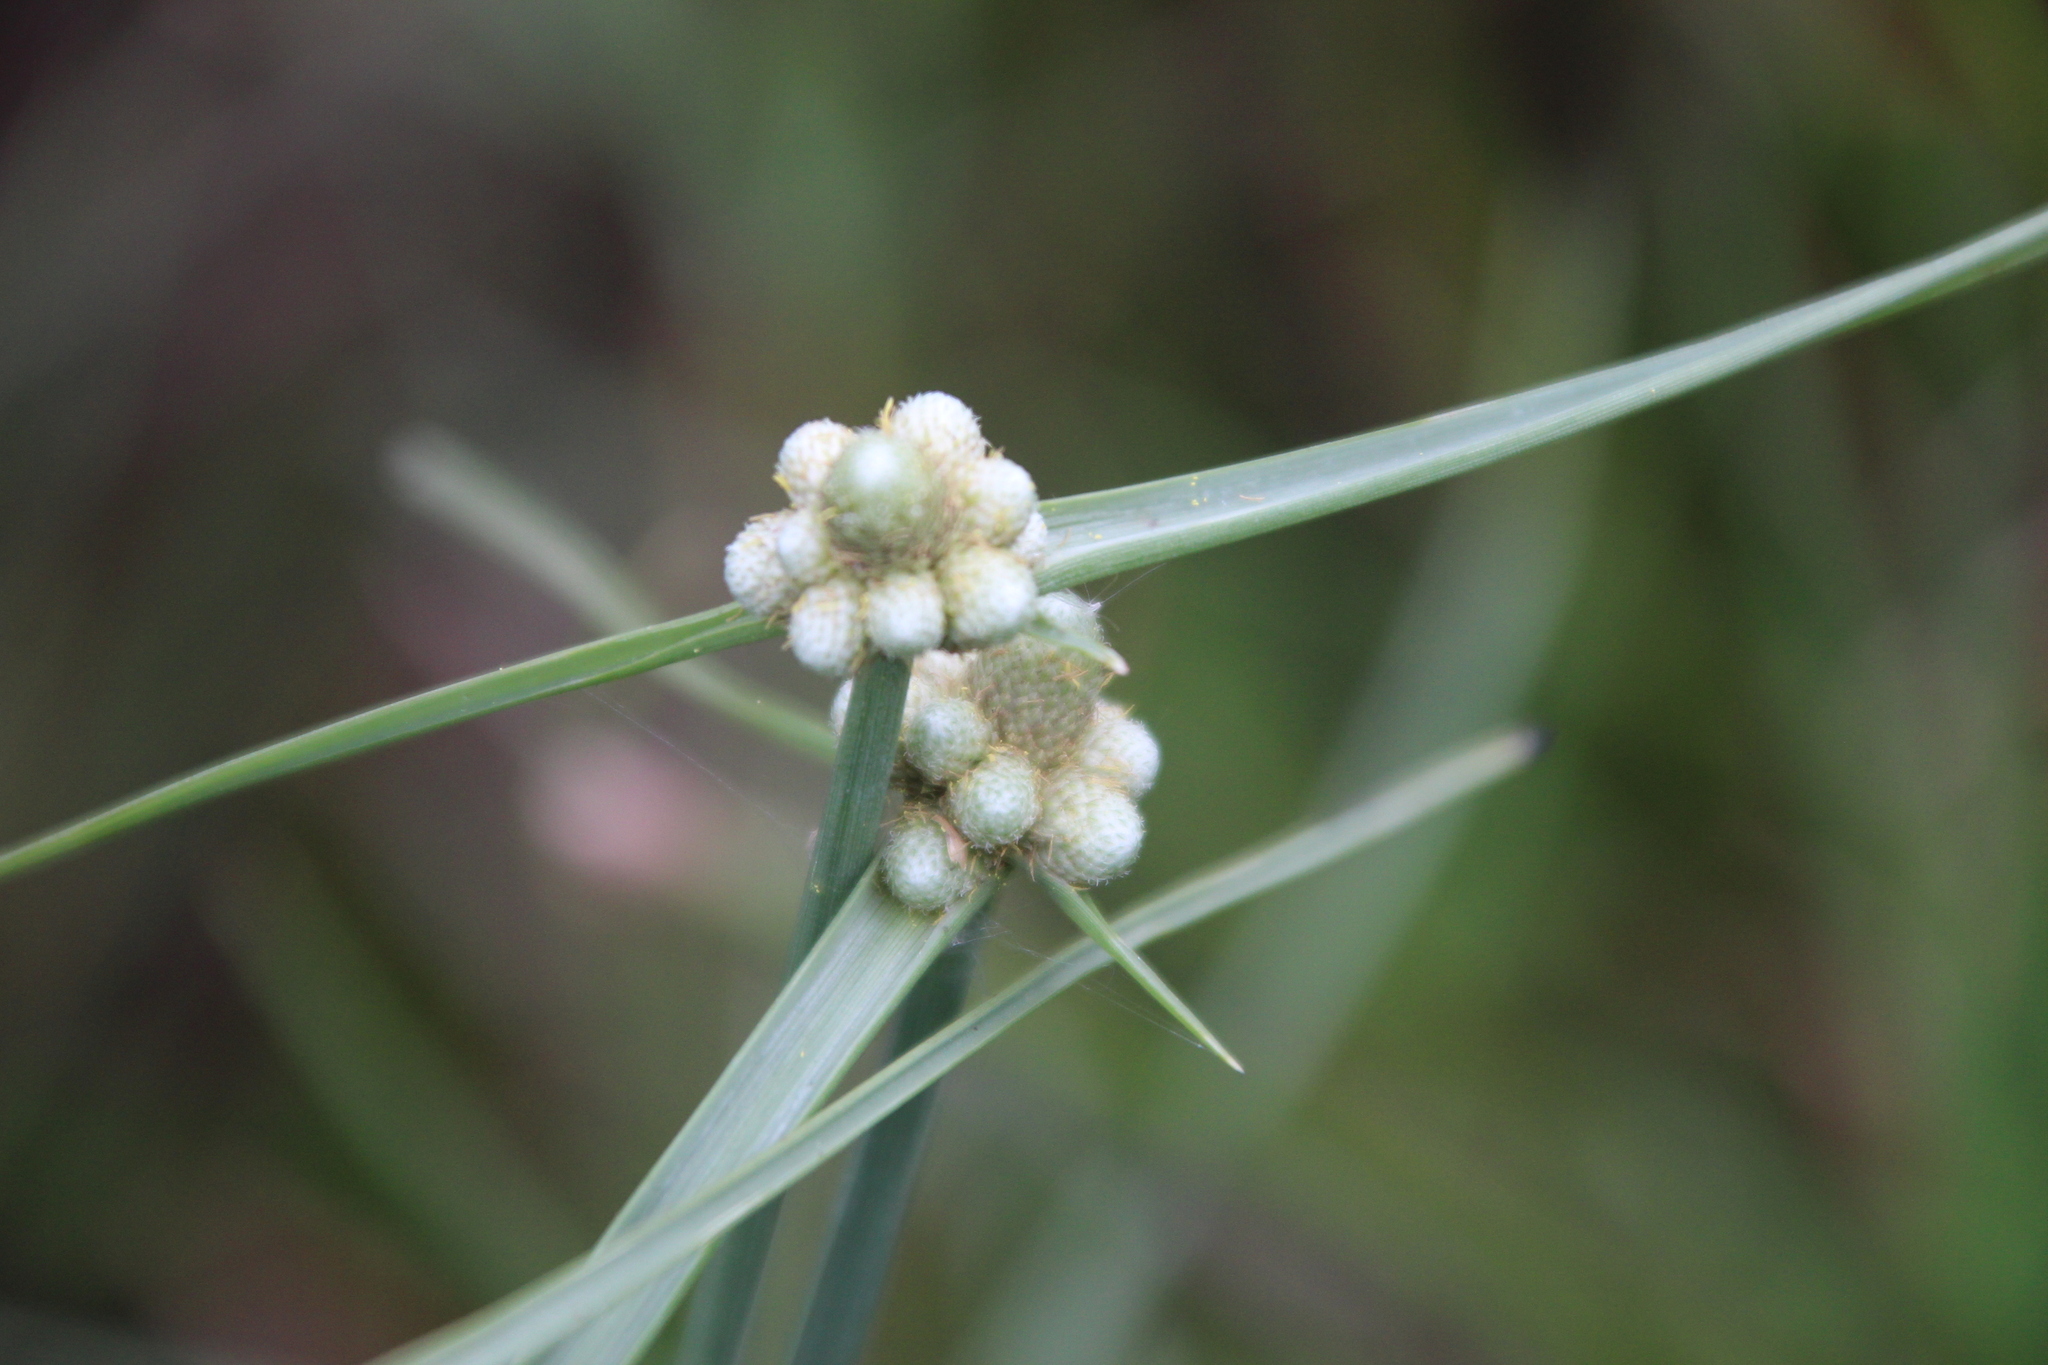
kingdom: Plantae
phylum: Tracheophyta
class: Liliopsida
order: Poales
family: Cyperaceae
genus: Cyperus
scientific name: Cyperus albescens
